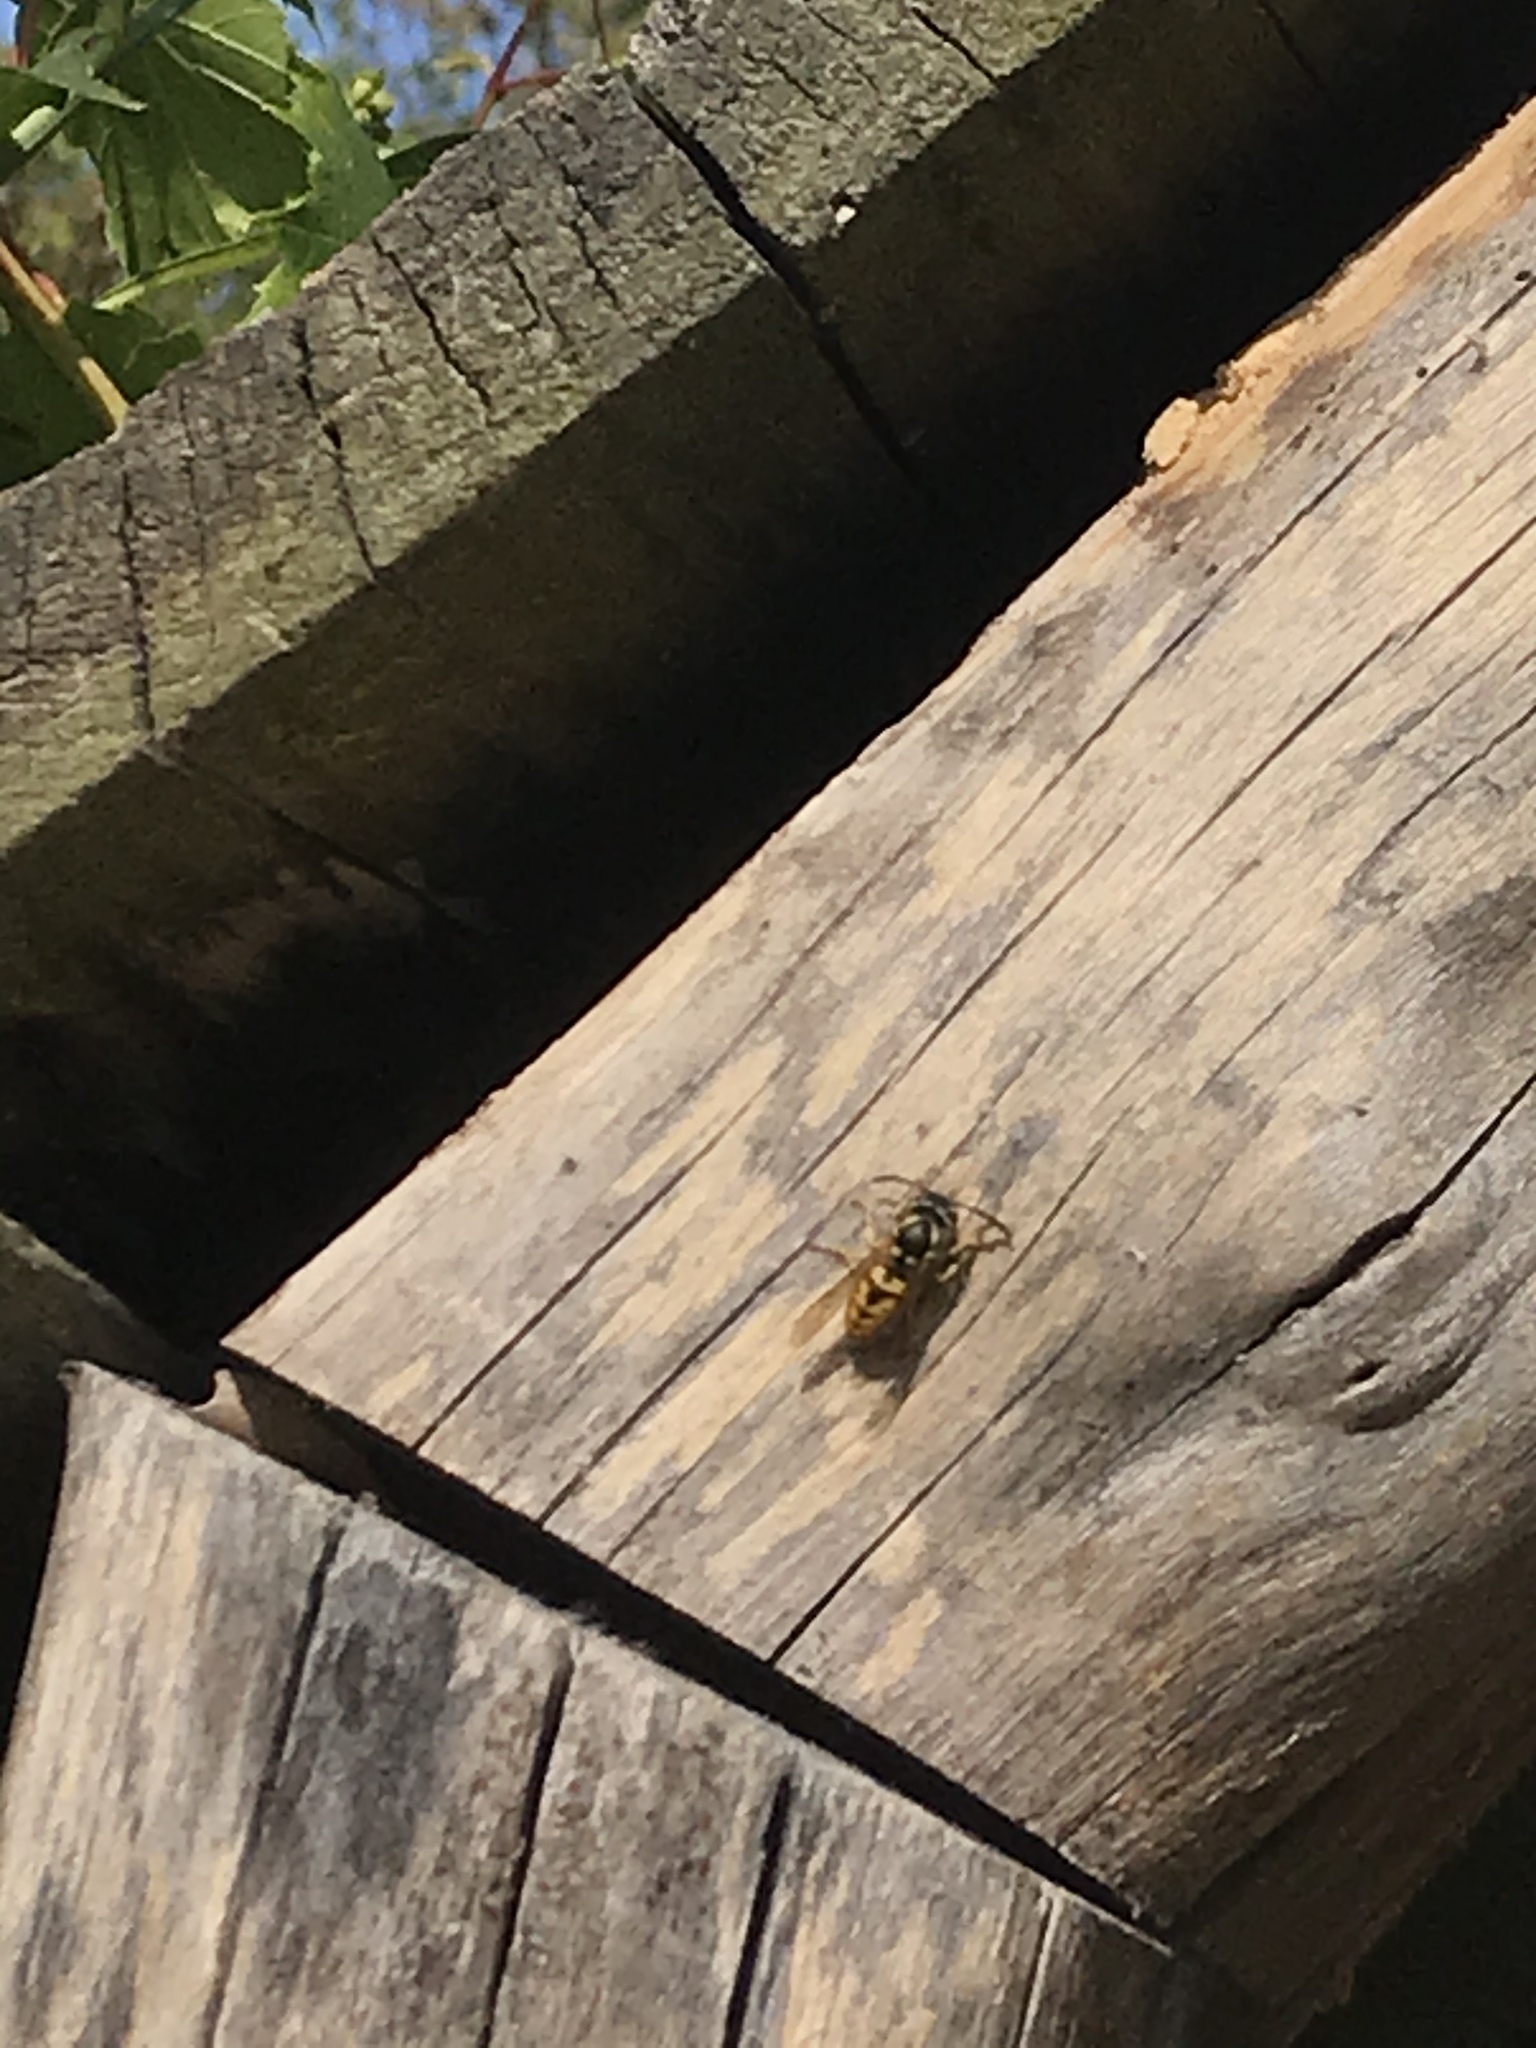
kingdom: Animalia
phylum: Arthropoda
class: Insecta
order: Hymenoptera
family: Vespidae
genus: Vespula
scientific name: Vespula germanica
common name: German wasp
